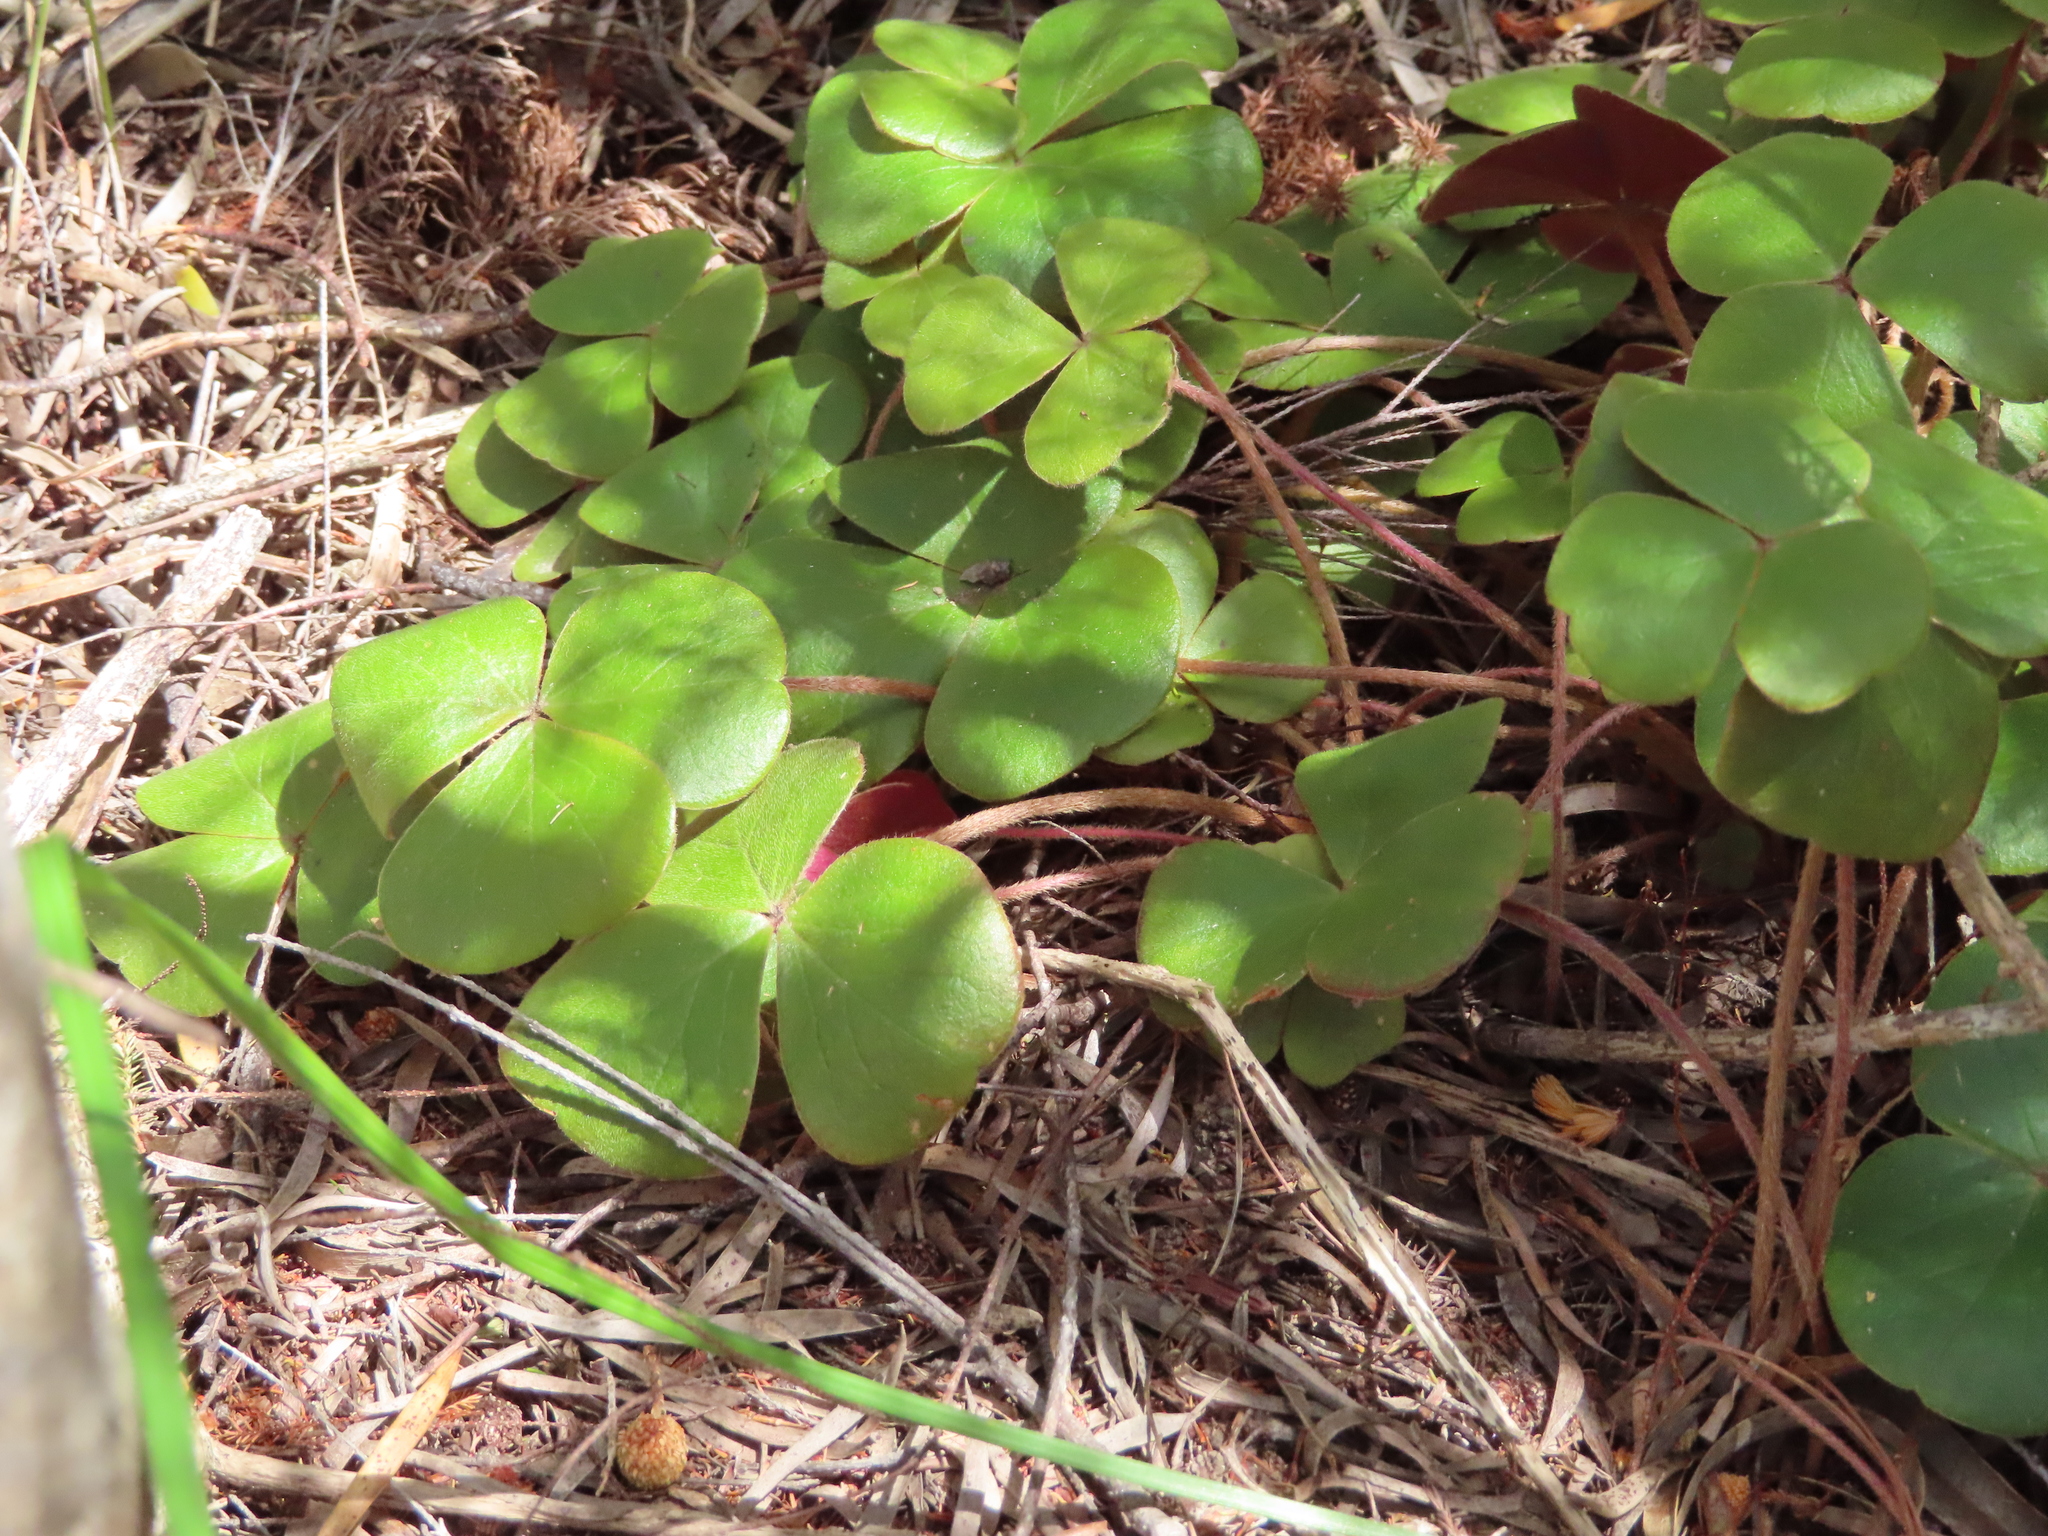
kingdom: Plantae
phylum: Tracheophyta
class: Magnoliopsida
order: Oxalidales
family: Oxalidaceae
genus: Oxalis
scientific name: Oxalis truncatula
